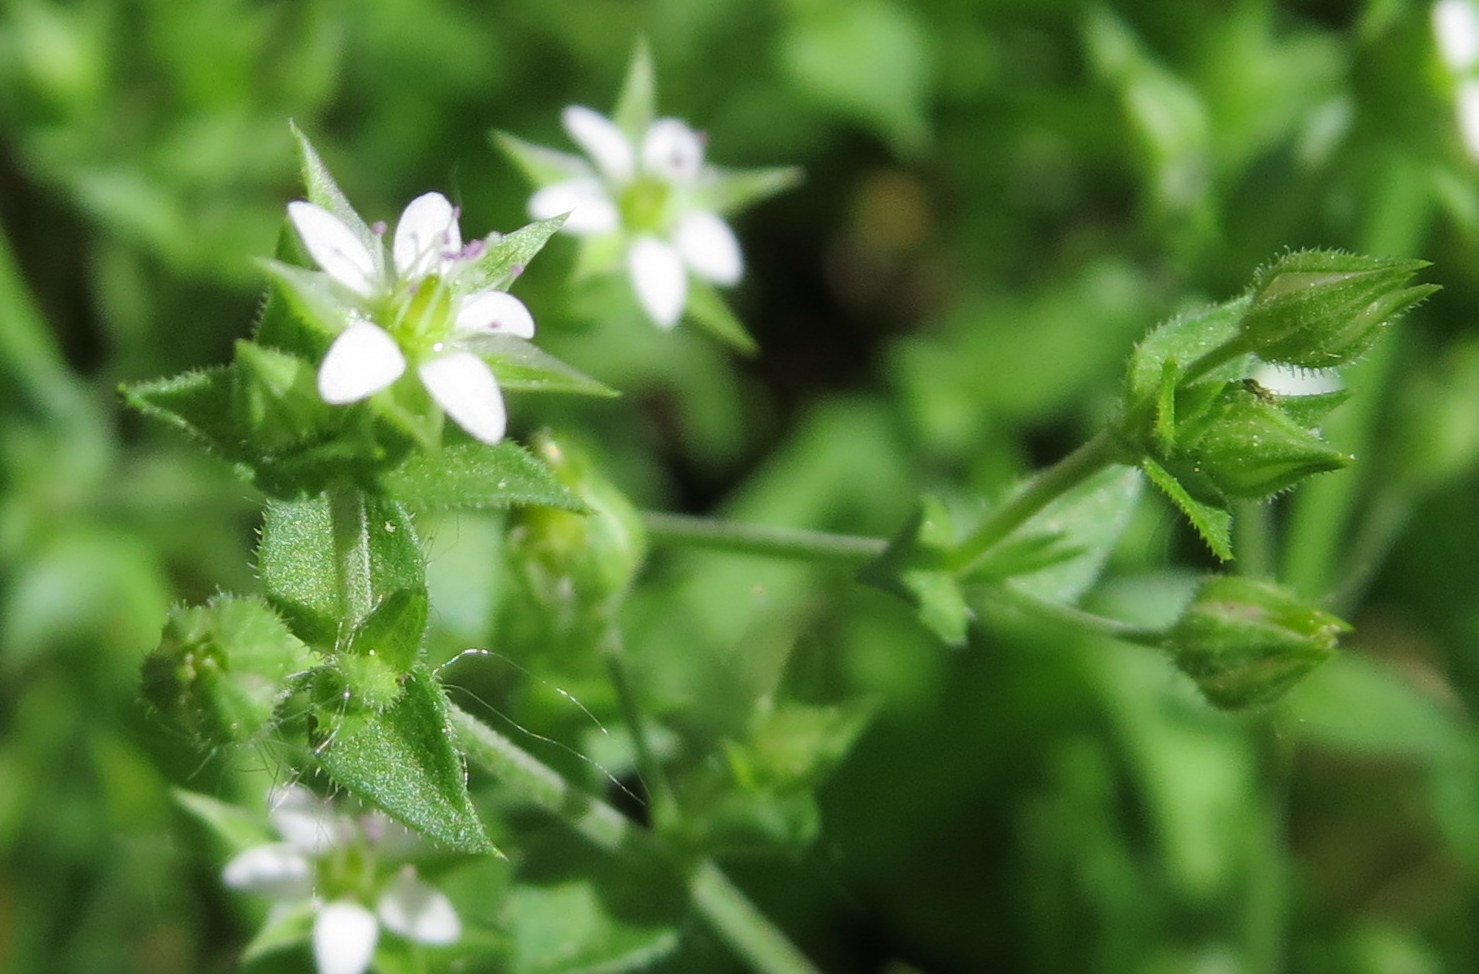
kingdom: Plantae
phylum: Tracheophyta
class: Magnoliopsida
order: Caryophyllales
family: Caryophyllaceae
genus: Arenaria
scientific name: Arenaria serpyllifolia
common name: Thyme-leaved sandwort
